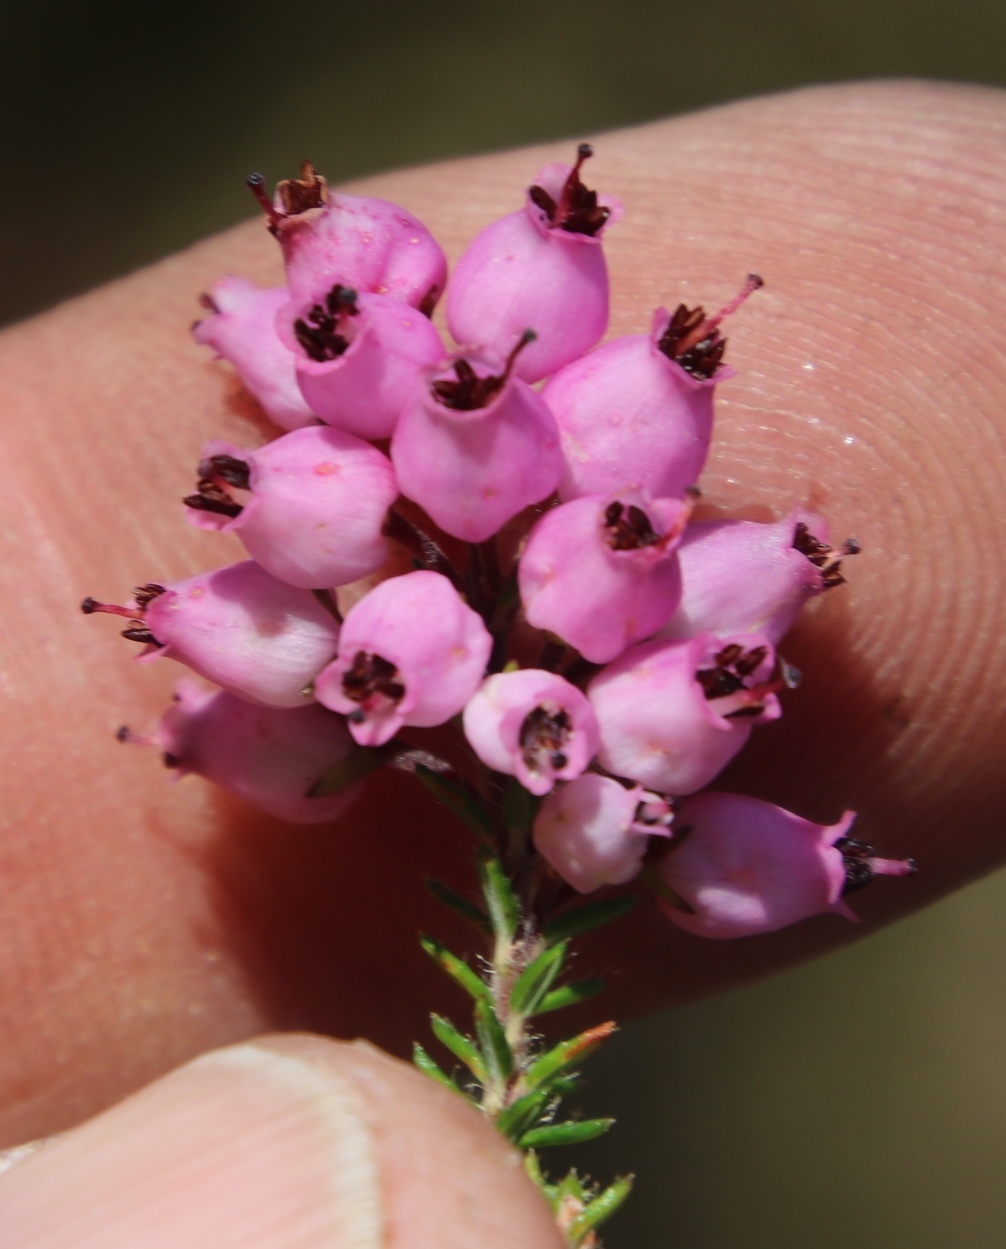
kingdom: Plantae
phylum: Tracheophyta
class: Magnoliopsida
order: Ericales
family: Ericaceae
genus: Erica
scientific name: Erica racemosa
